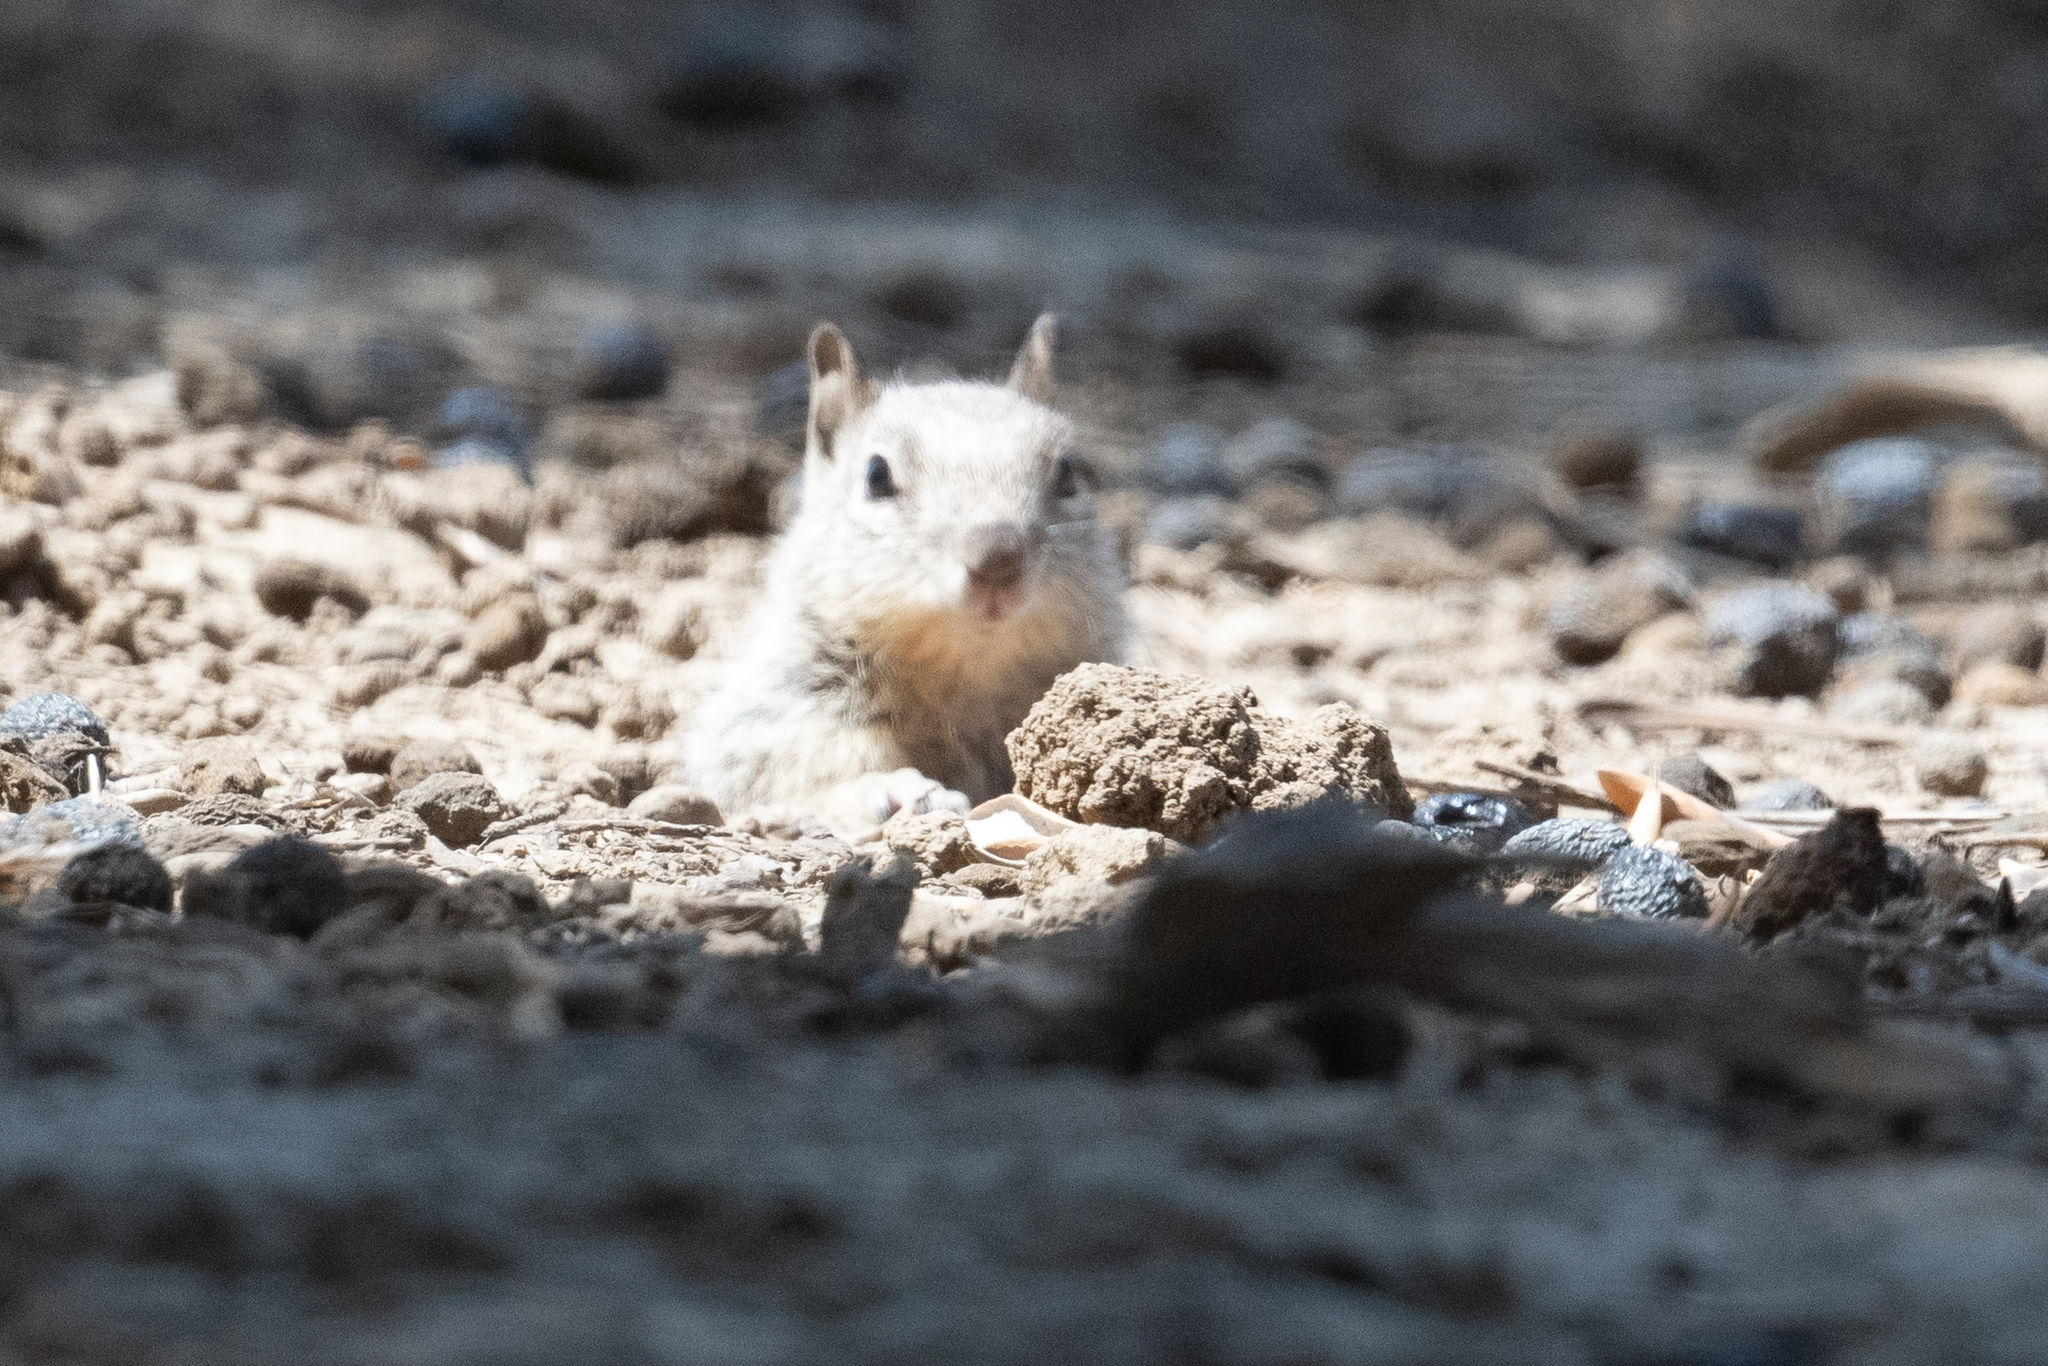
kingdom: Animalia
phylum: Chordata
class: Mammalia
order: Rodentia
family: Sciuridae
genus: Otospermophilus
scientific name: Otospermophilus beecheyi
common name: California ground squirrel
